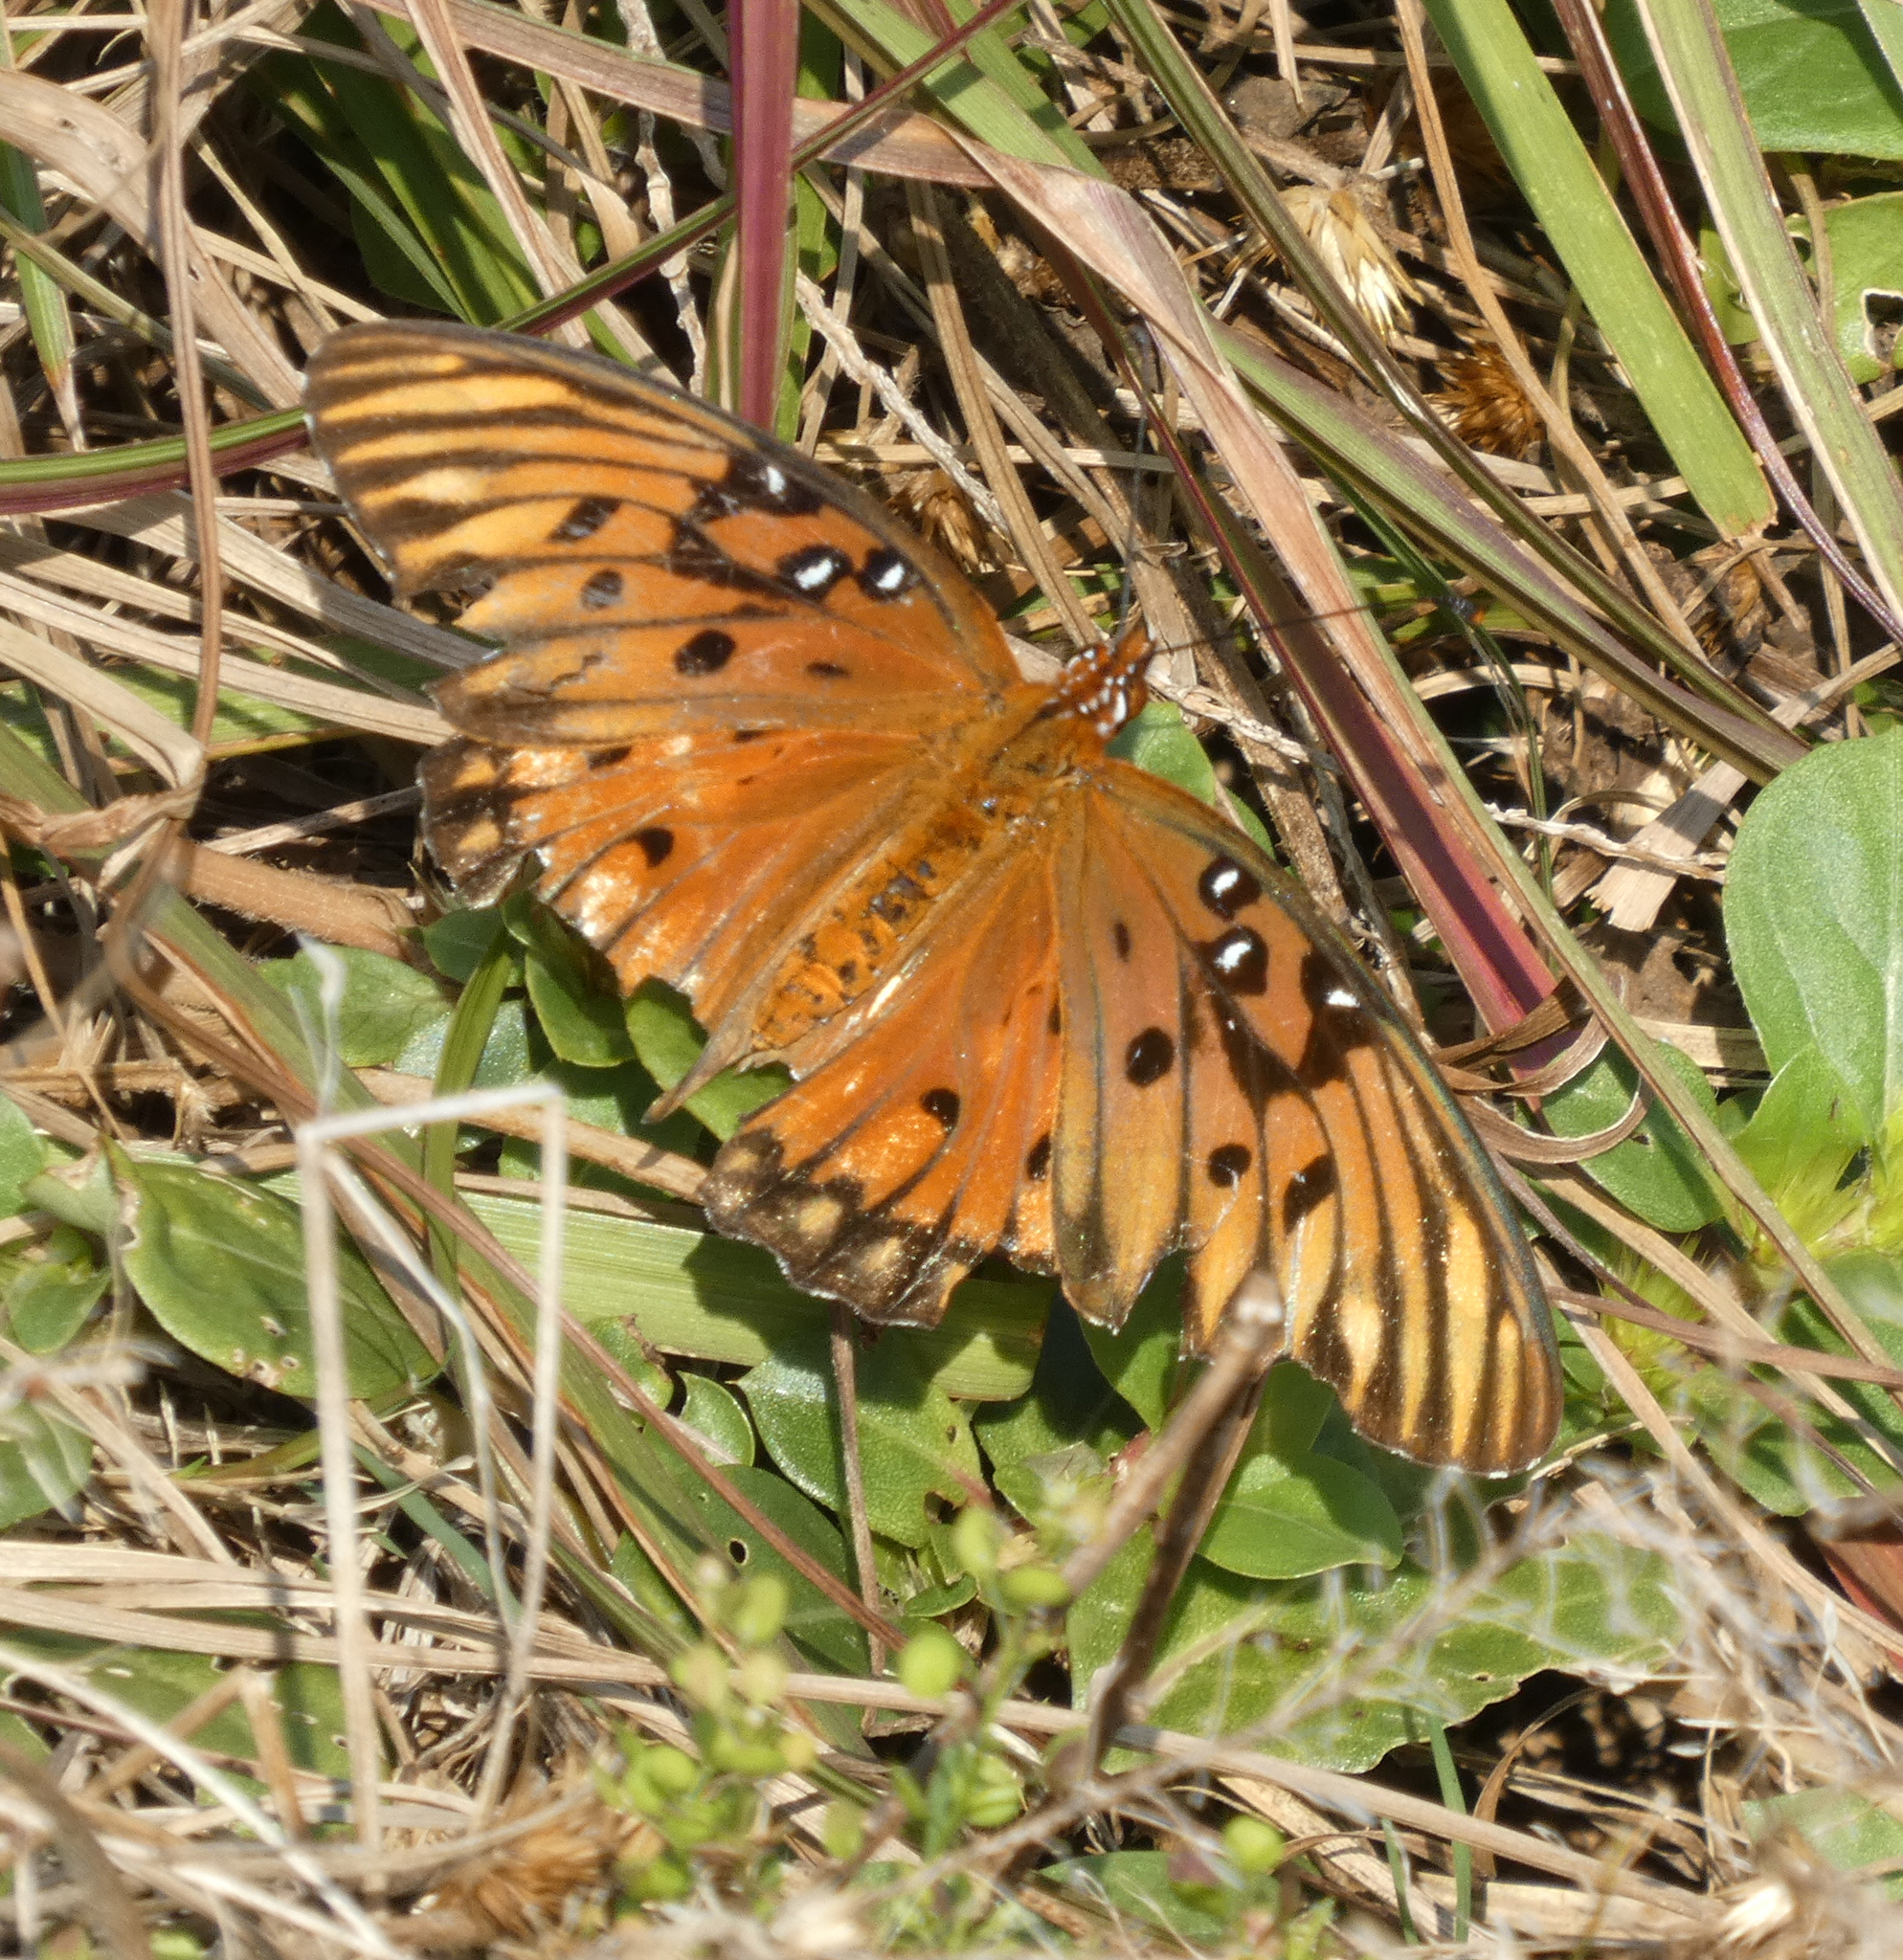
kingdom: Animalia
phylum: Arthropoda
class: Insecta
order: Lepidoptera
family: Nymphalidae
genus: Dione
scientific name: Dione vanillae
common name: Gulf fritillary
